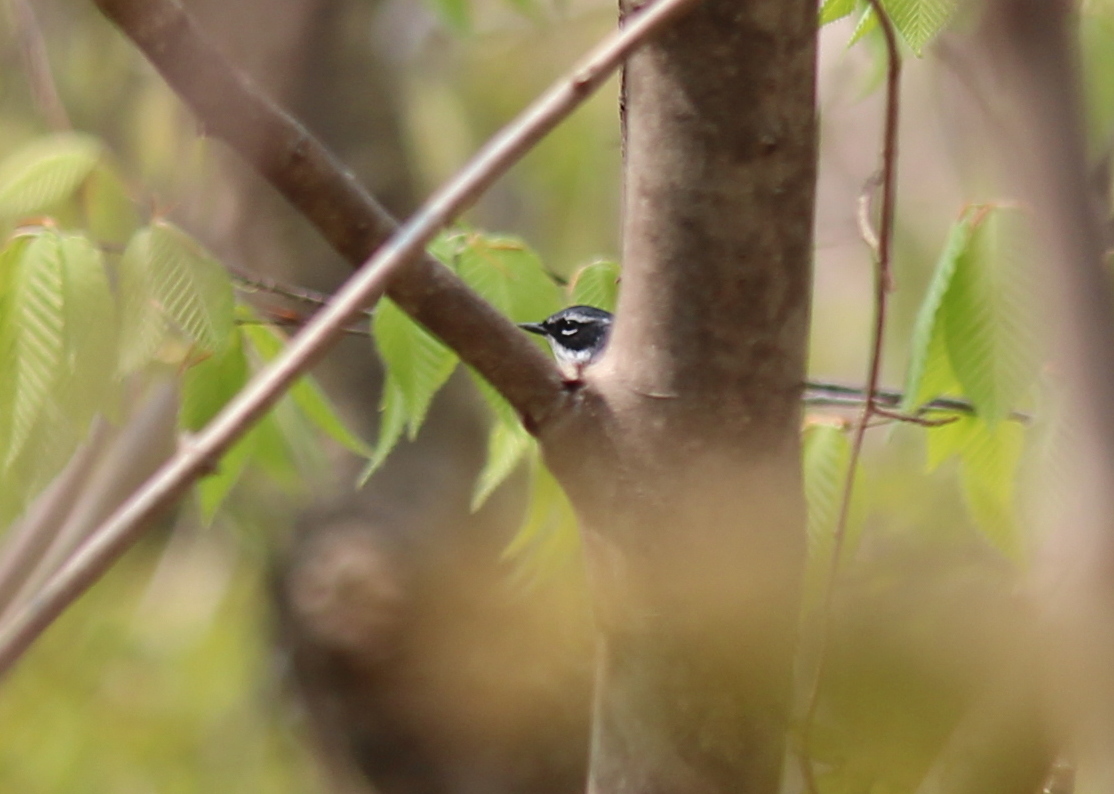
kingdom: Animalia
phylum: Chordata
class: Aves
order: Passeriformes
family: Parulidae
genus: Setophaga
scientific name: Setophaga coronata
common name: Myrtle warbler
